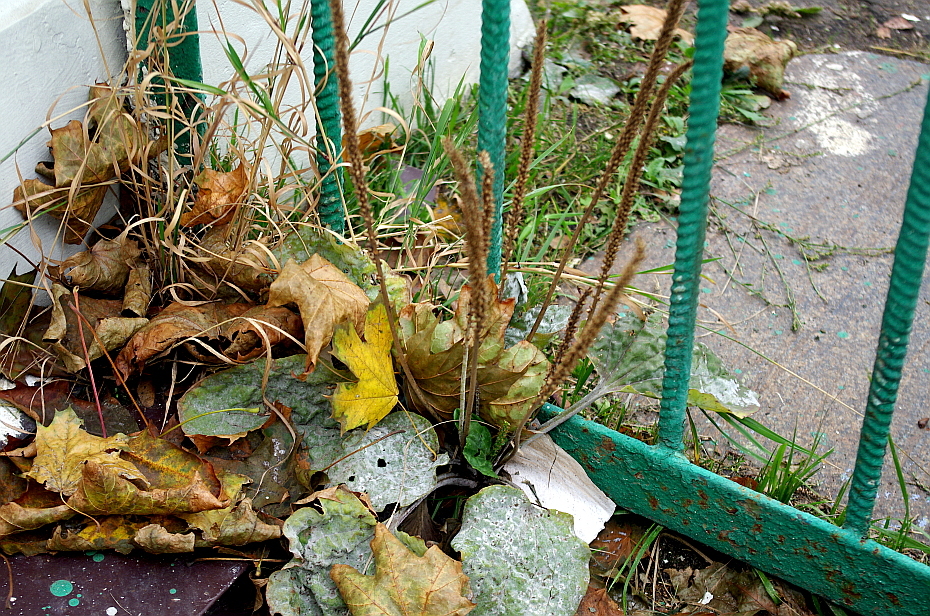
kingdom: Plantae
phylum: Tracheophyta
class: Magnoliopsida
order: Lamiales
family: Plantaginaceae
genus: Plantago
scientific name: Plantago major
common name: Common plantain
